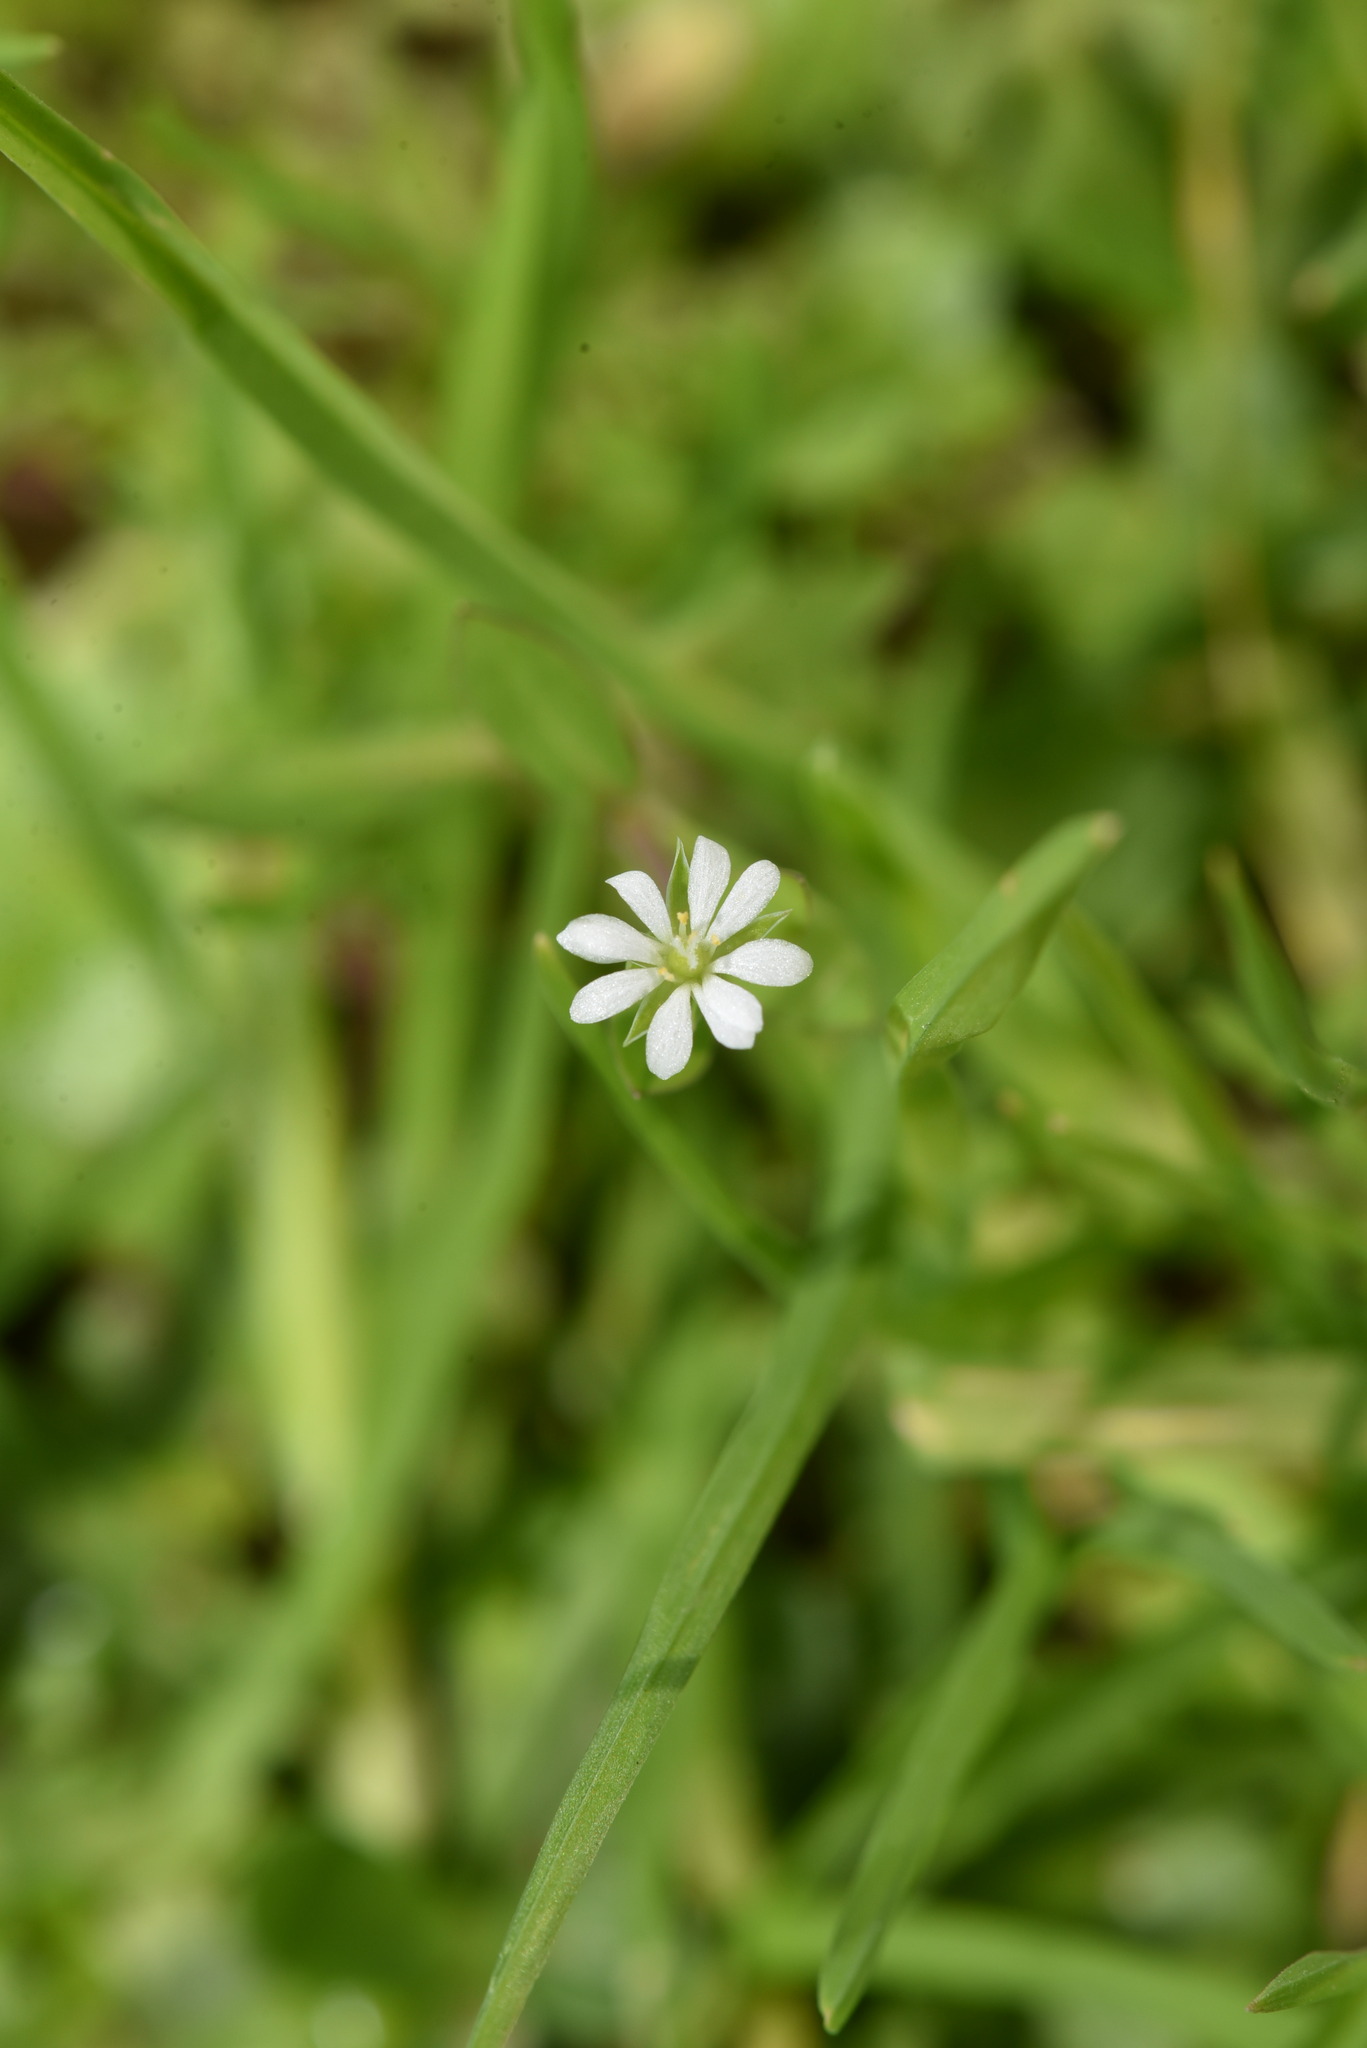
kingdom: Plantae
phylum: Tracheophyta
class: Magnoliopsida
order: Caryophyllales
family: Caryophyllaceae
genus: Stellaria
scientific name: Stellaria alsine
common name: Bog stitchwort
